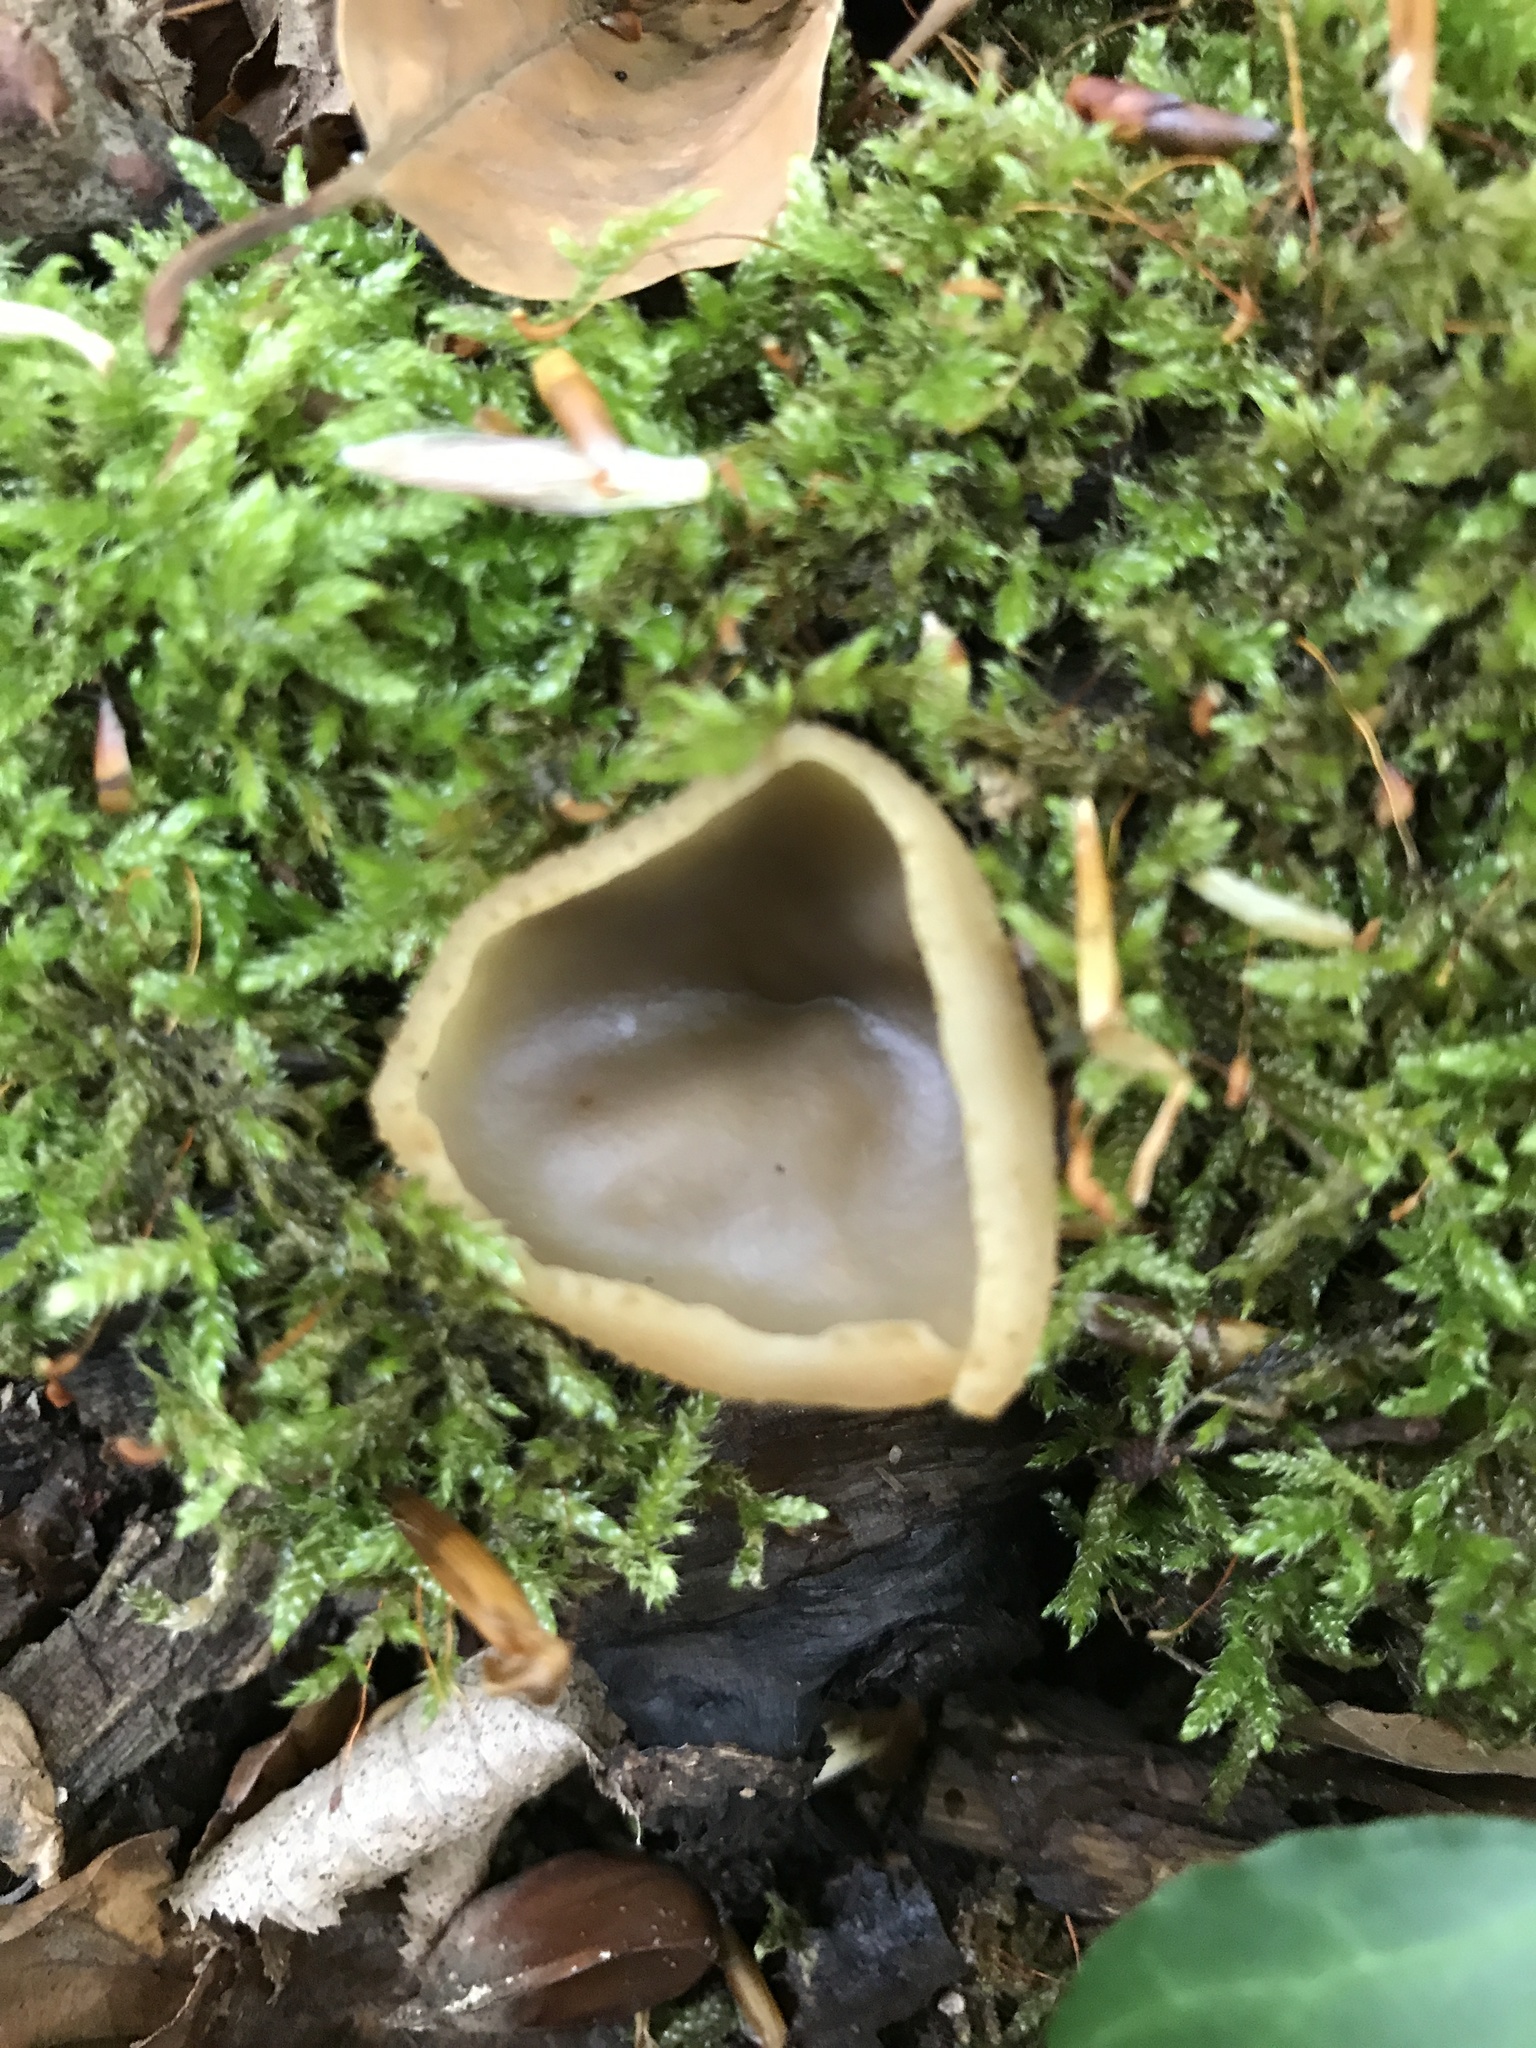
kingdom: Fungi
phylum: Ascomycota
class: Pezizomycetes
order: Pezizales
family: Pezizaceae
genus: Peziza
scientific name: Peziza
